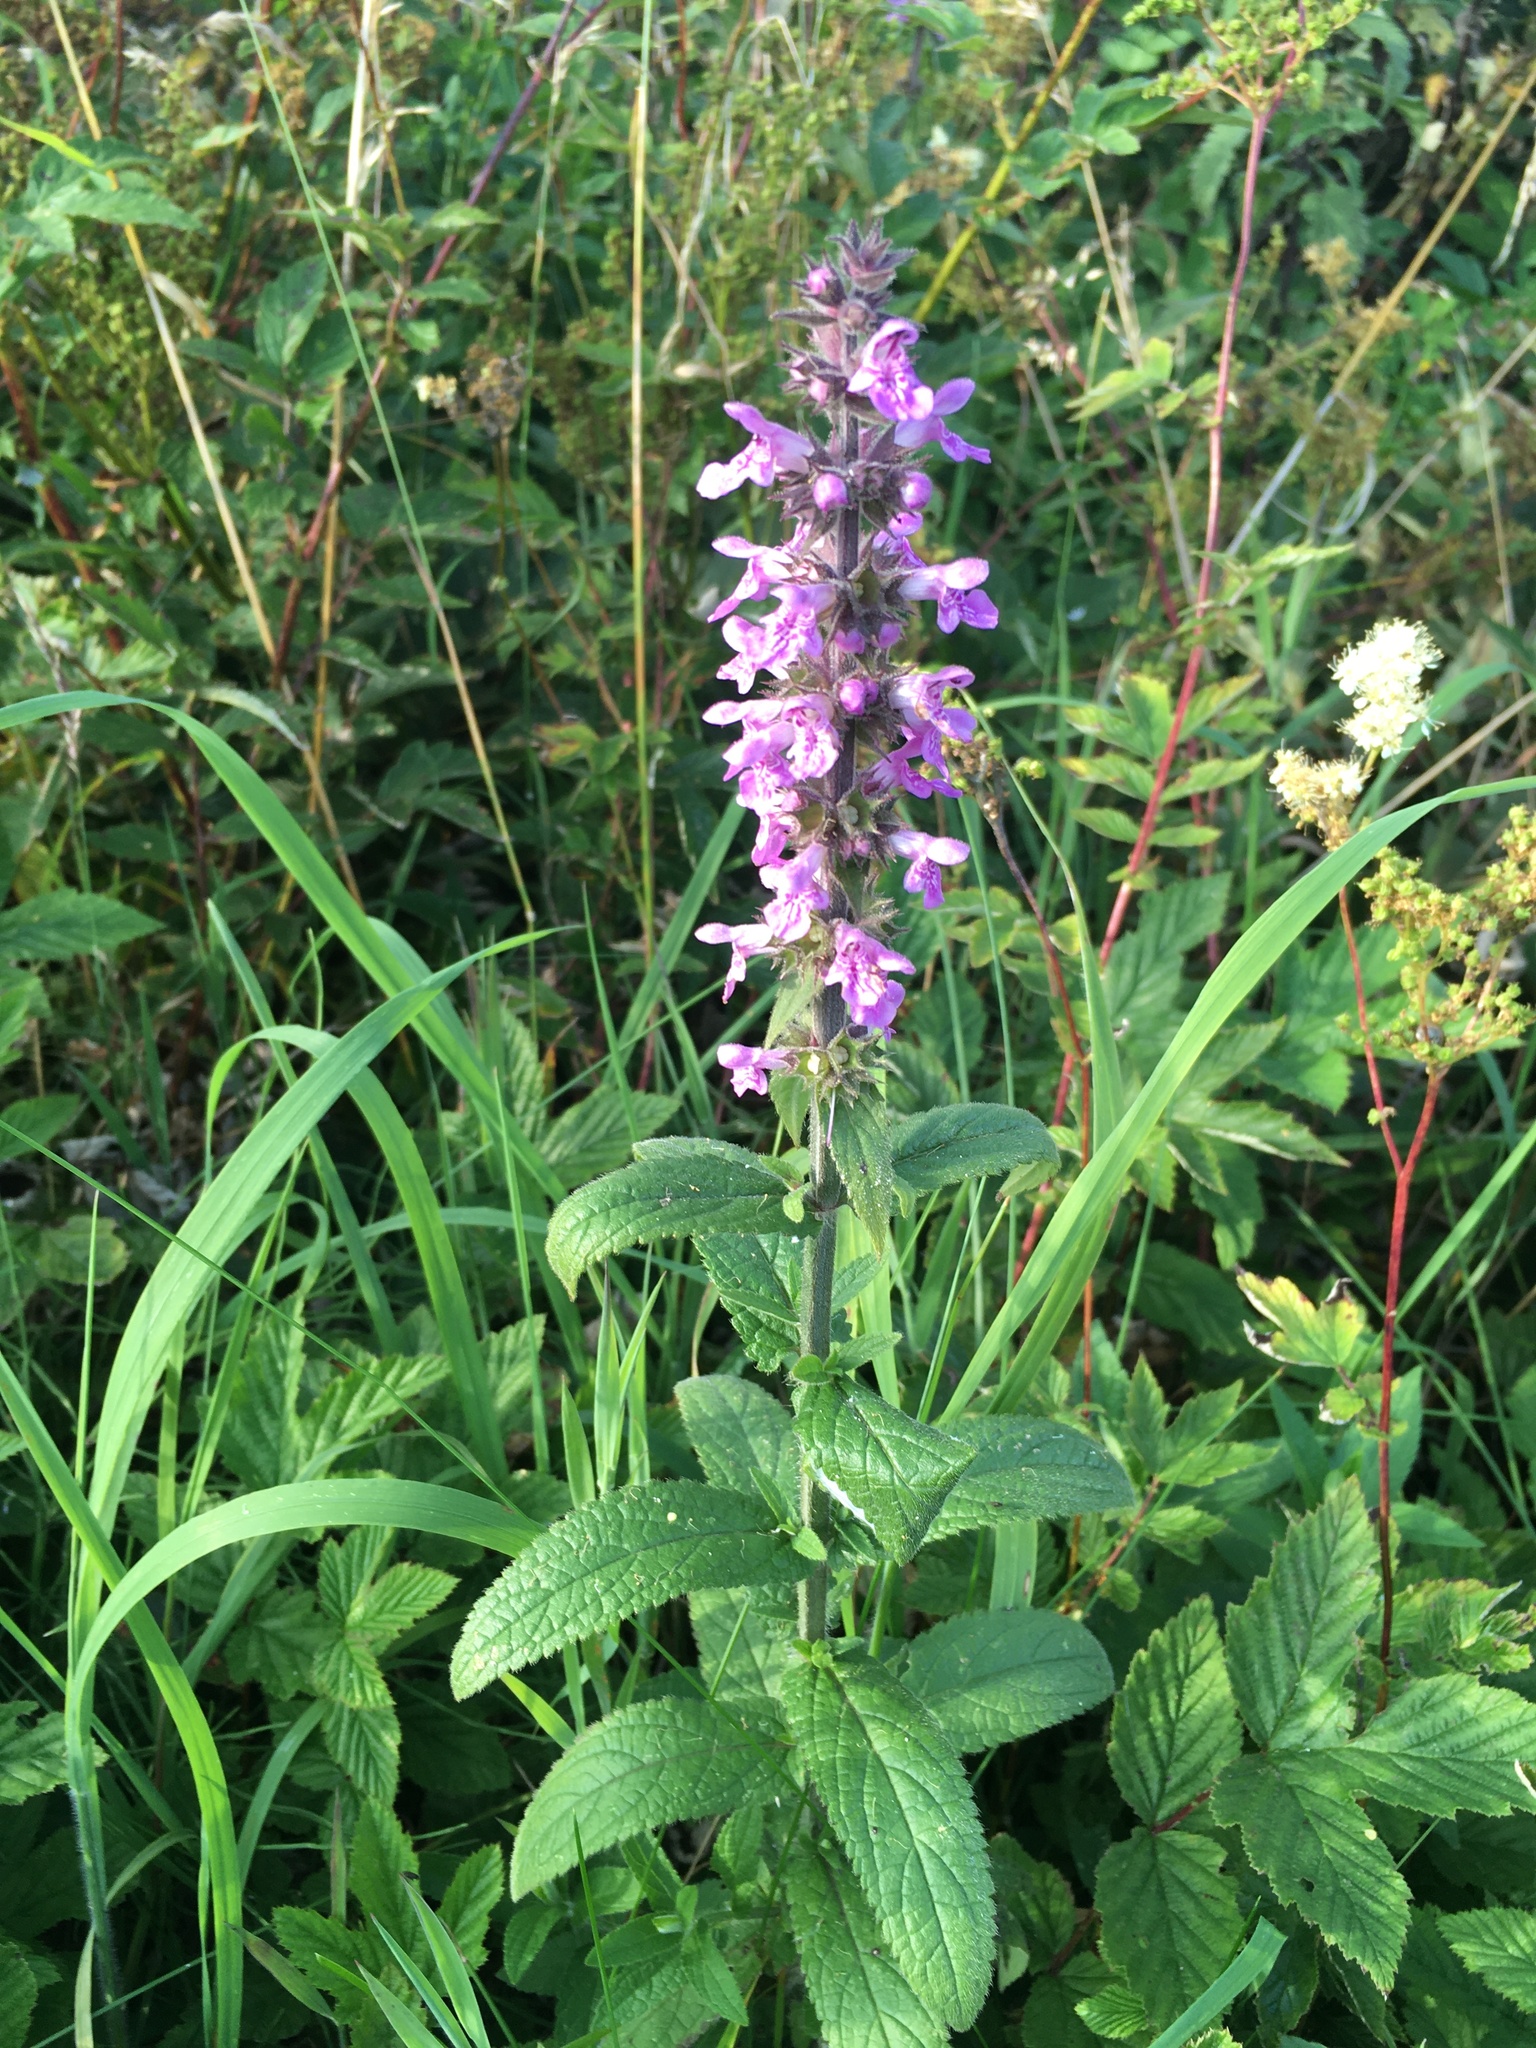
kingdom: Plantae
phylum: Tracheophyta
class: Magnoliopsida
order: Lamiales
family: Lamiaceae
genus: Stachys
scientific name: Stachys palustris
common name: Marsh woundwort
